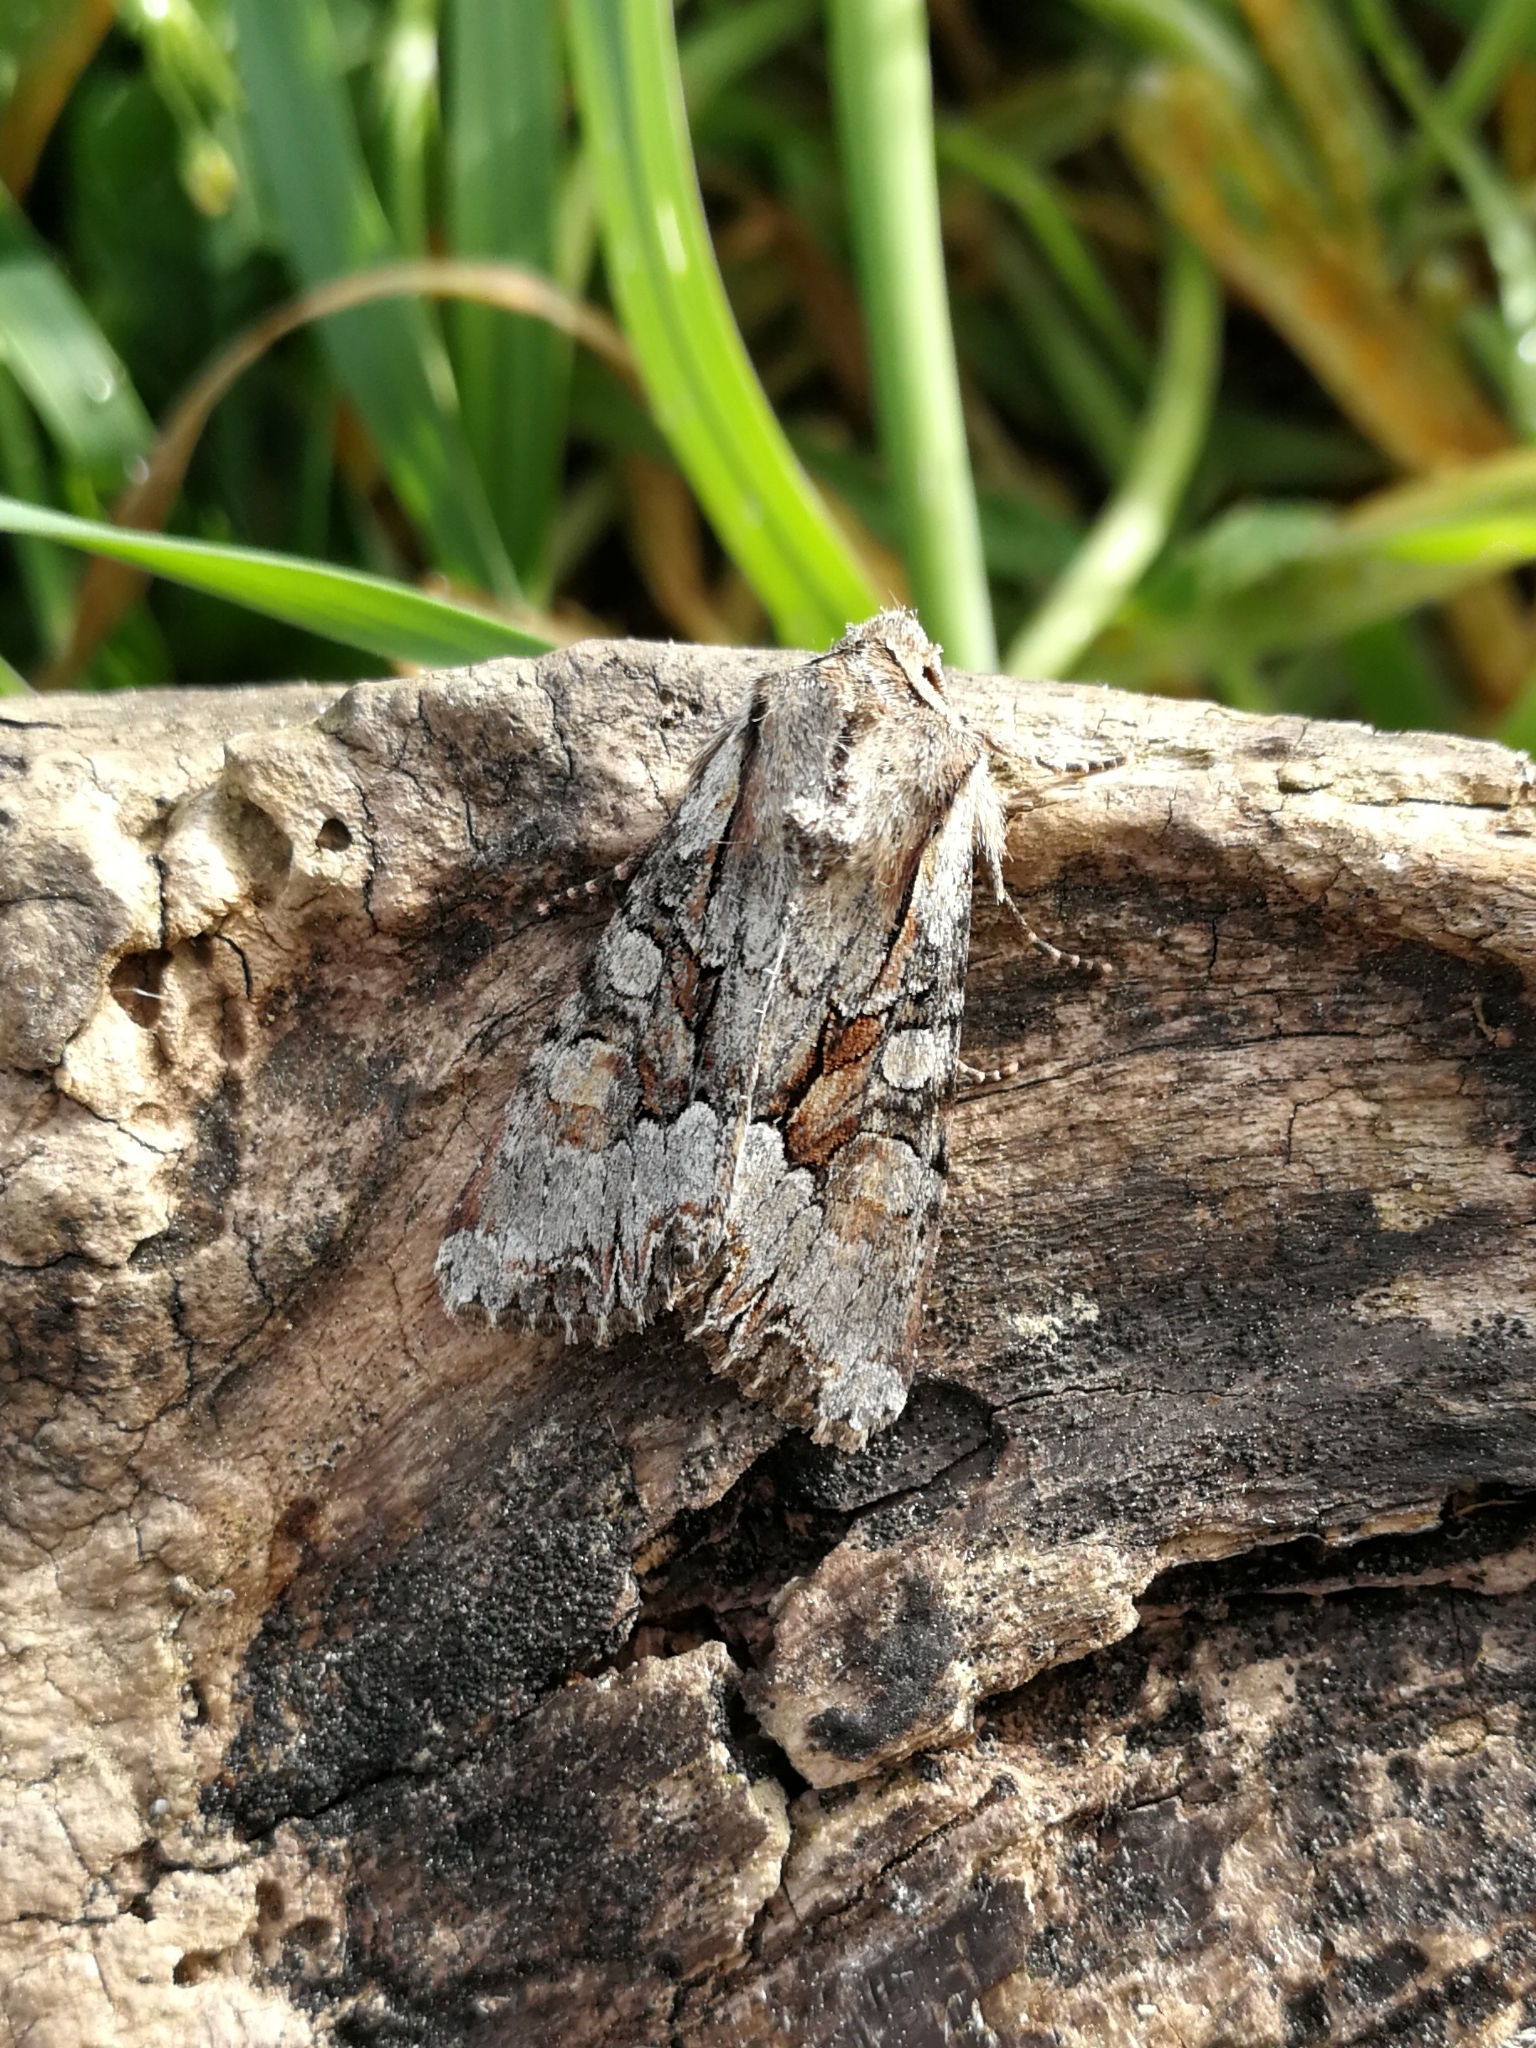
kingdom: Animalia
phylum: Arthropoda
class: Insecta
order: Lepidoptera
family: Noctuidae
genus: Lacanobia
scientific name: Lacanobia w-latinum
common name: Light brocade
